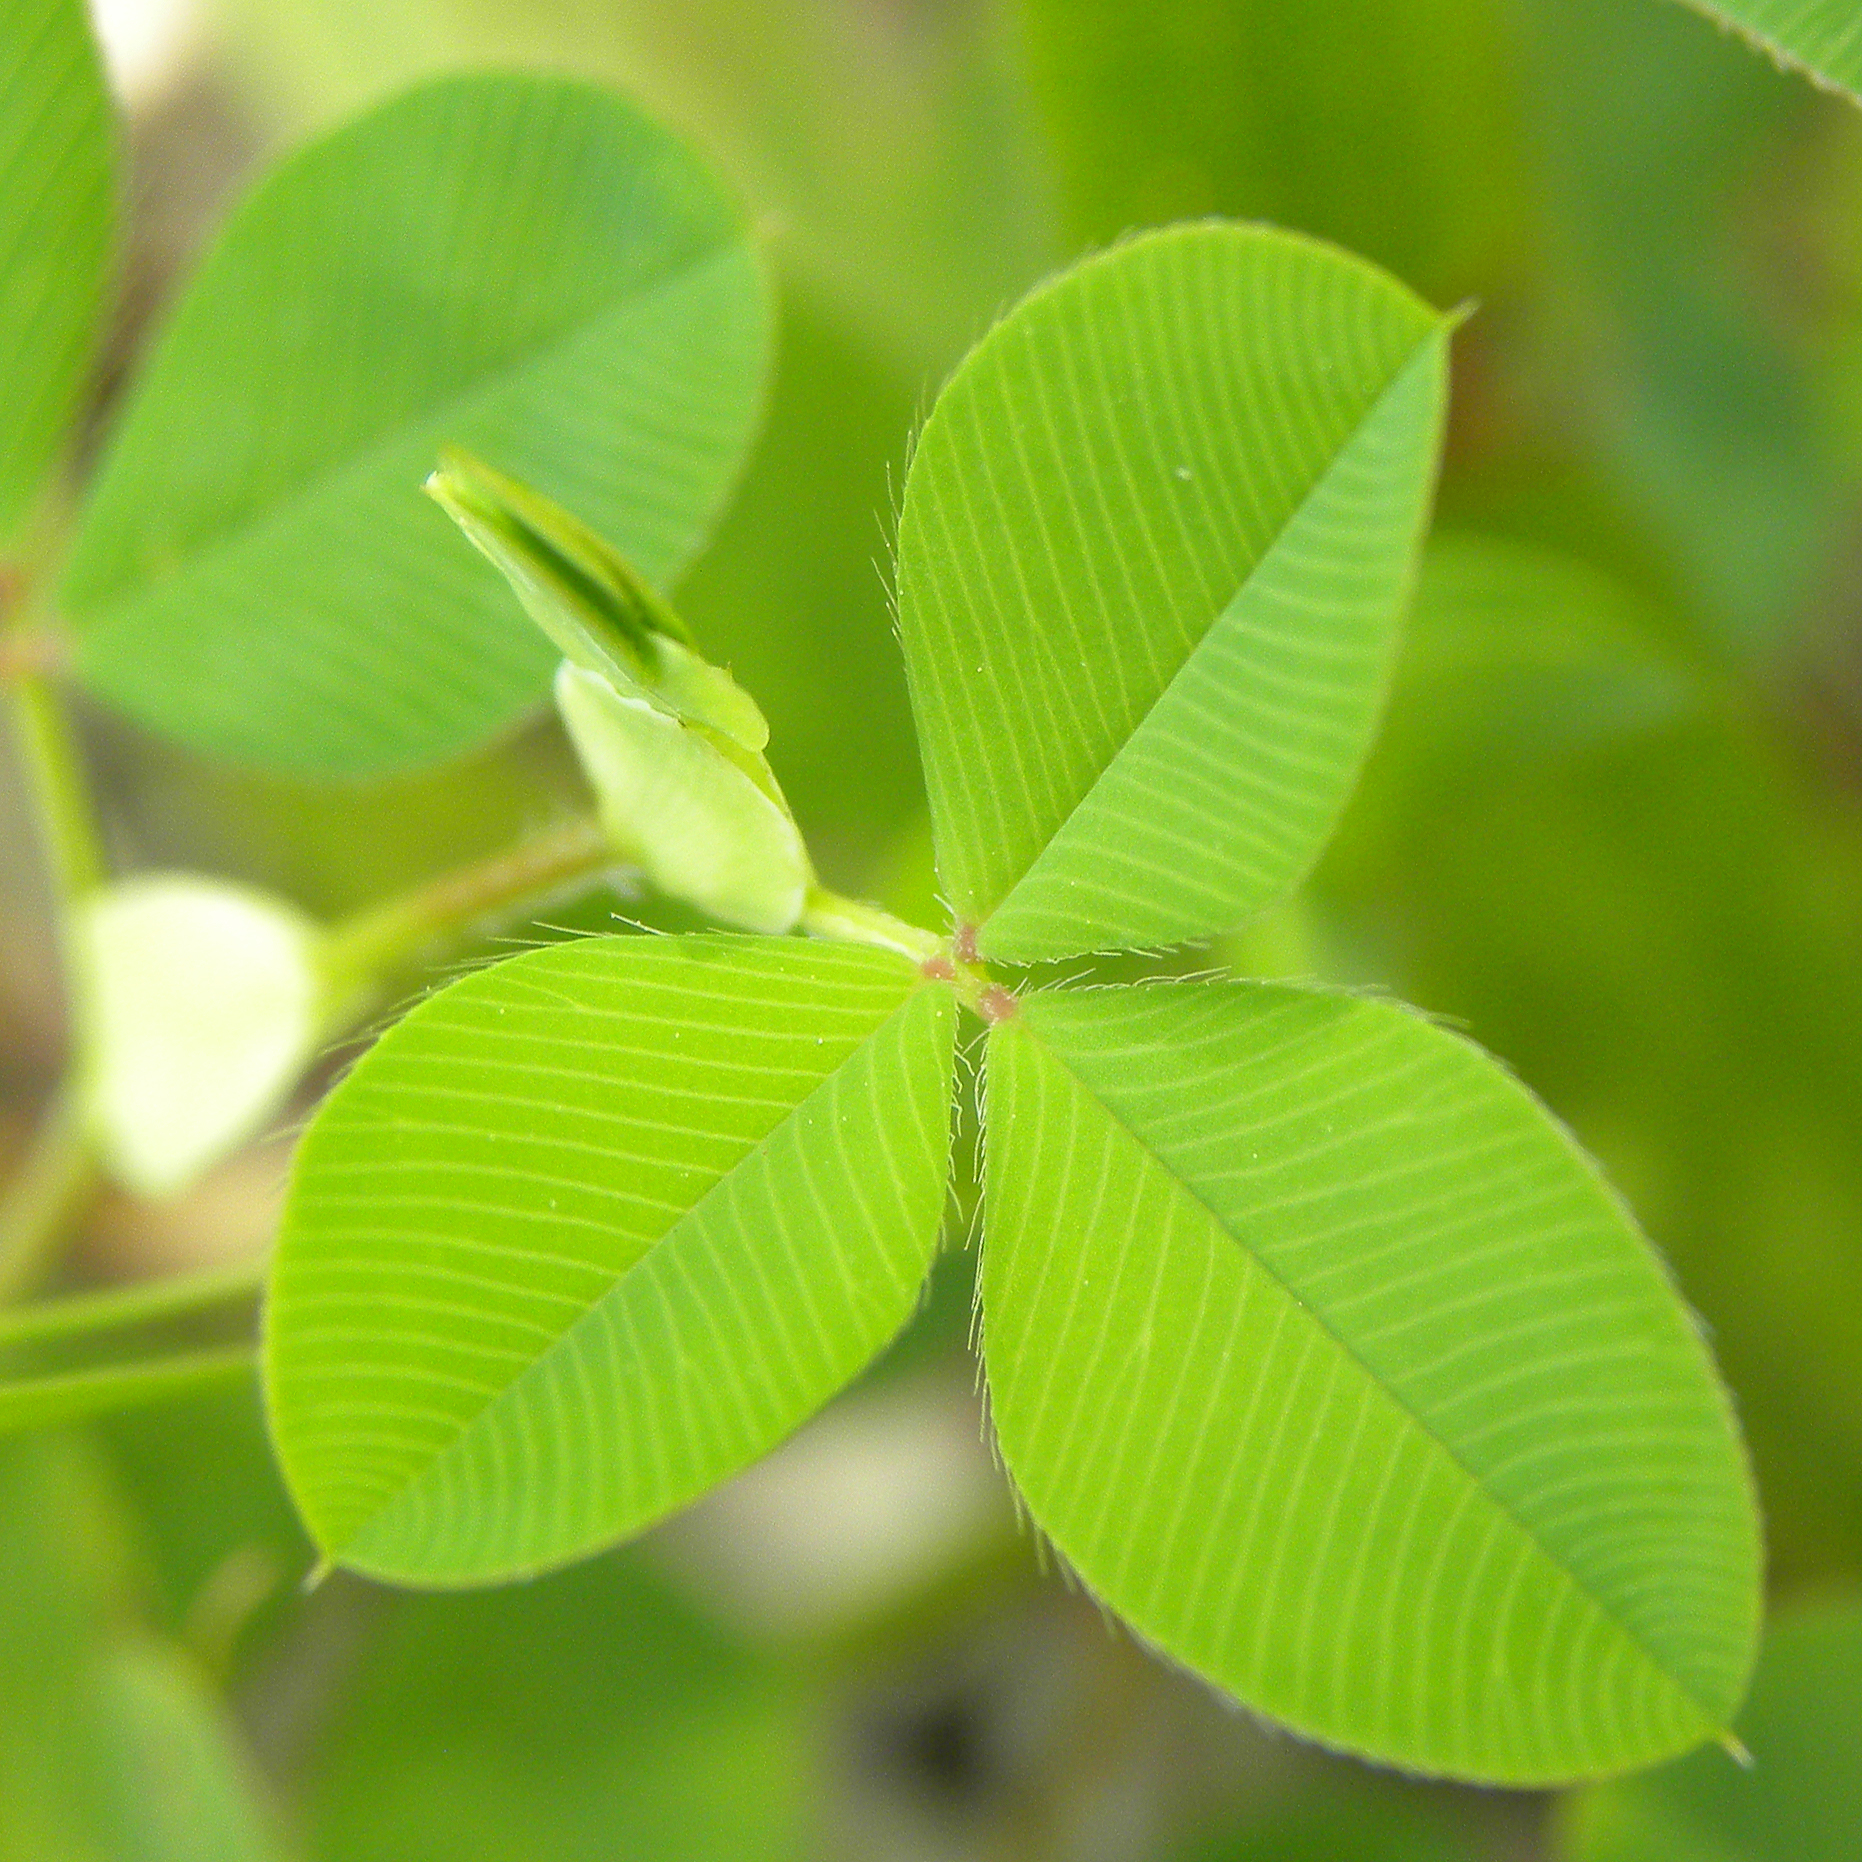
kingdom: Plantae
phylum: Tracheophyta
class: Magnoliopsida
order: Fabales
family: Fabaceae
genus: Kummerowia
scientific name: Kummerowia stipulacea
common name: Korean clover
